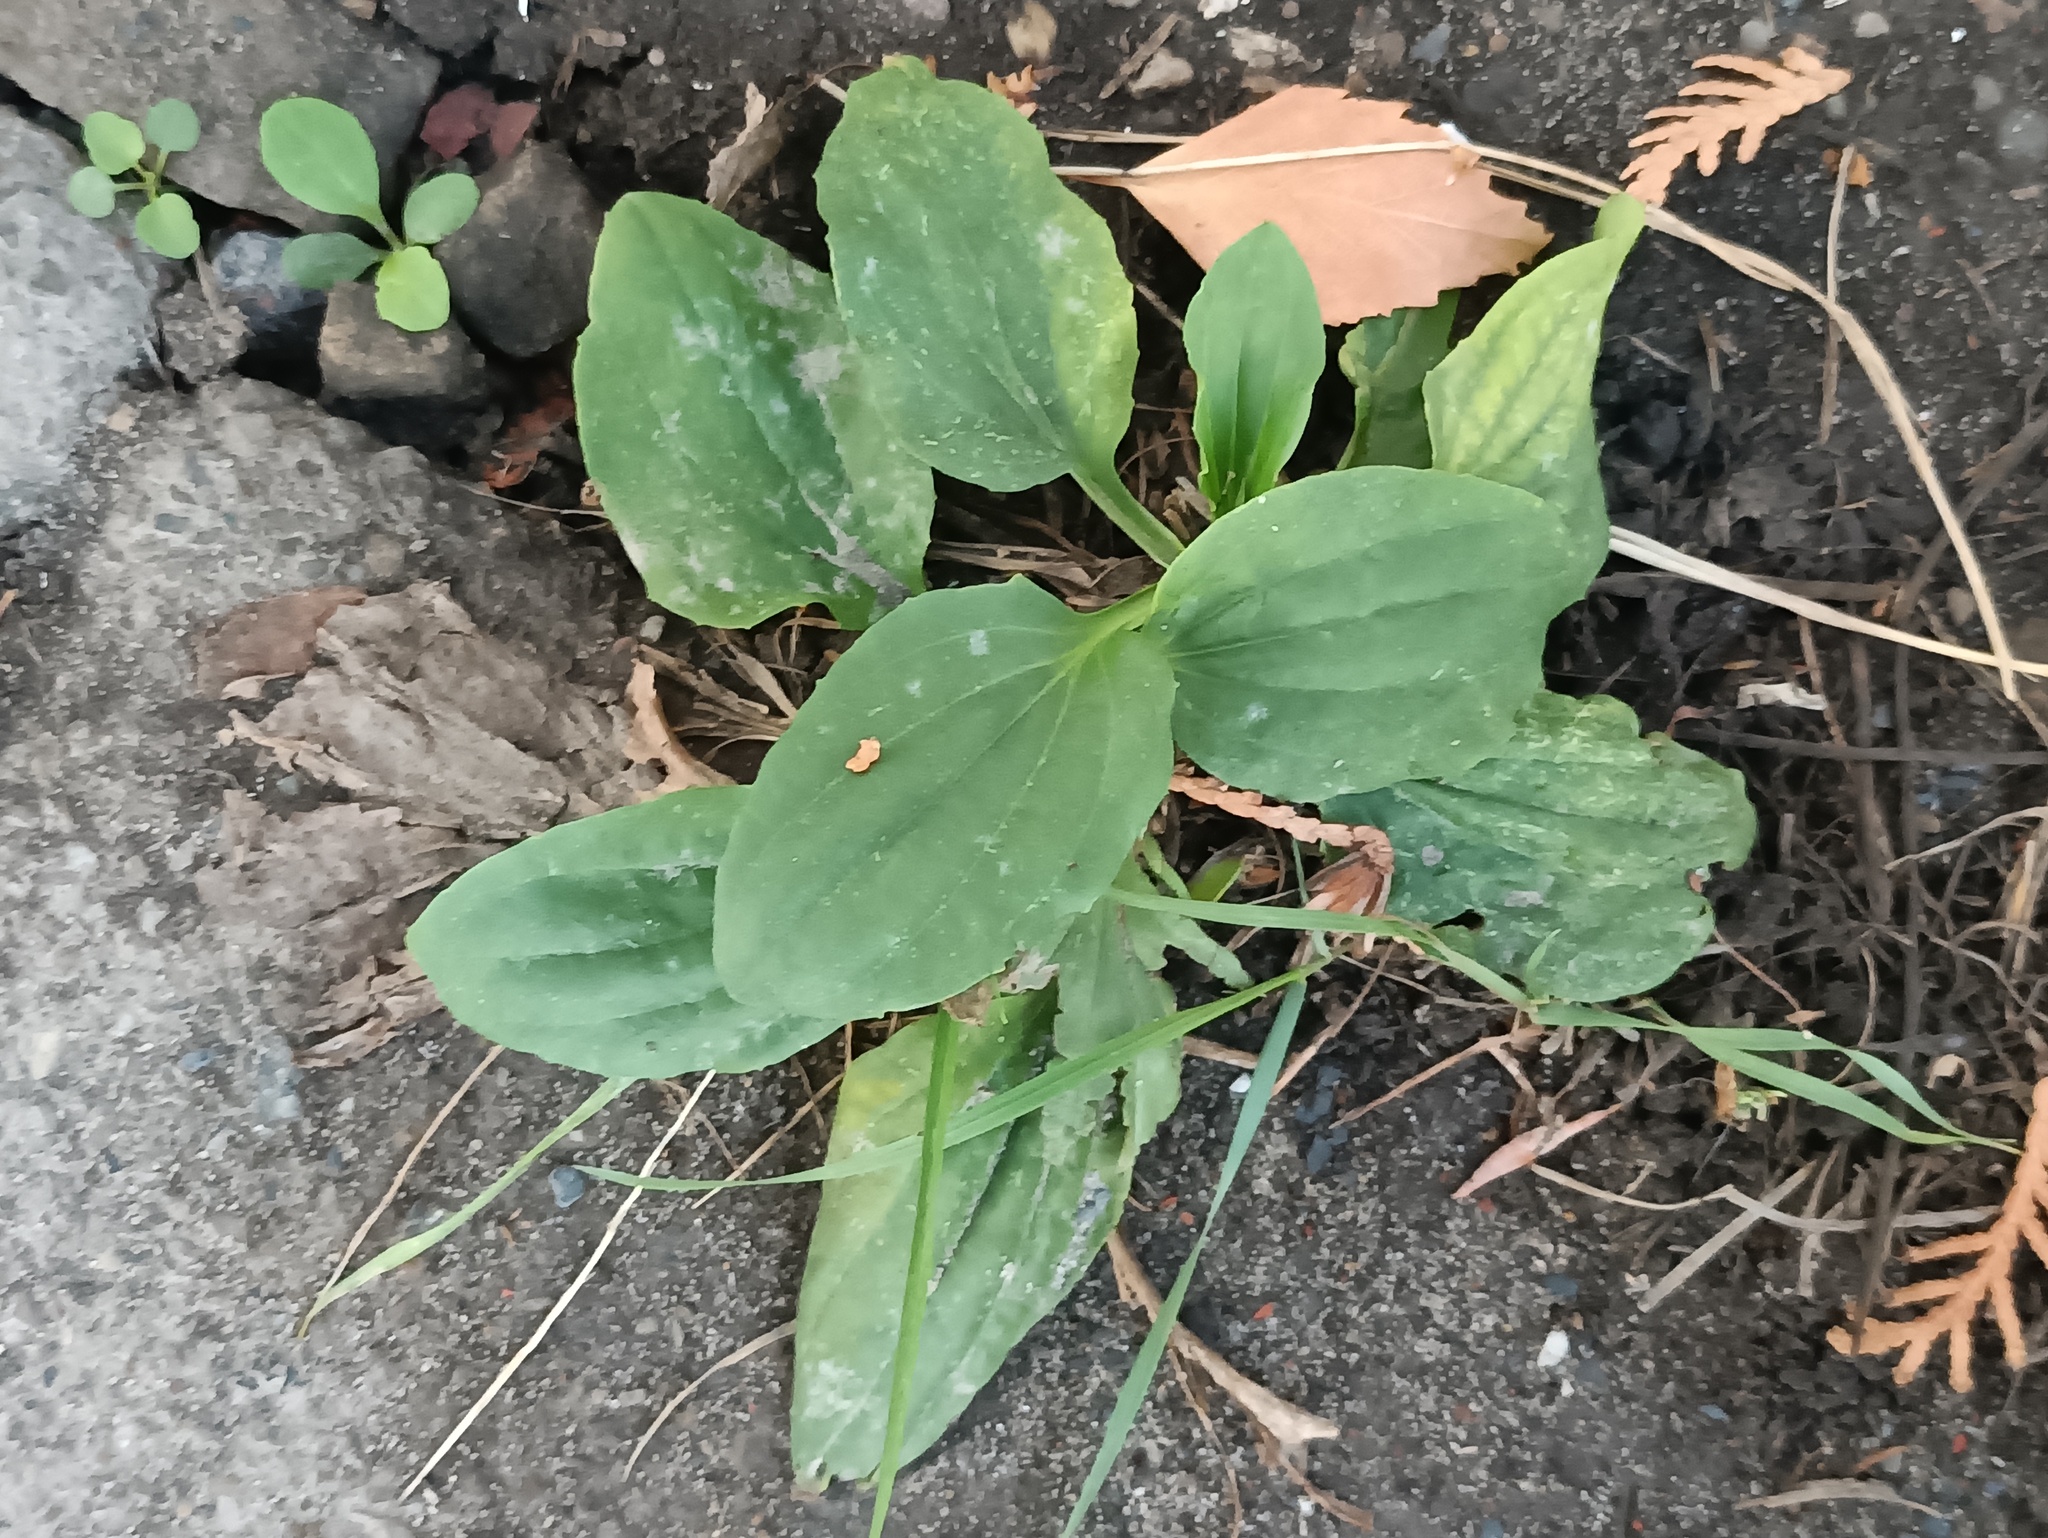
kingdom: Plantae
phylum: Tracheophyta
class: Magnoliopsida
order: Lamiales
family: Plantaginaceae
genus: Plantago
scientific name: Plantago major
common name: Common plantain
